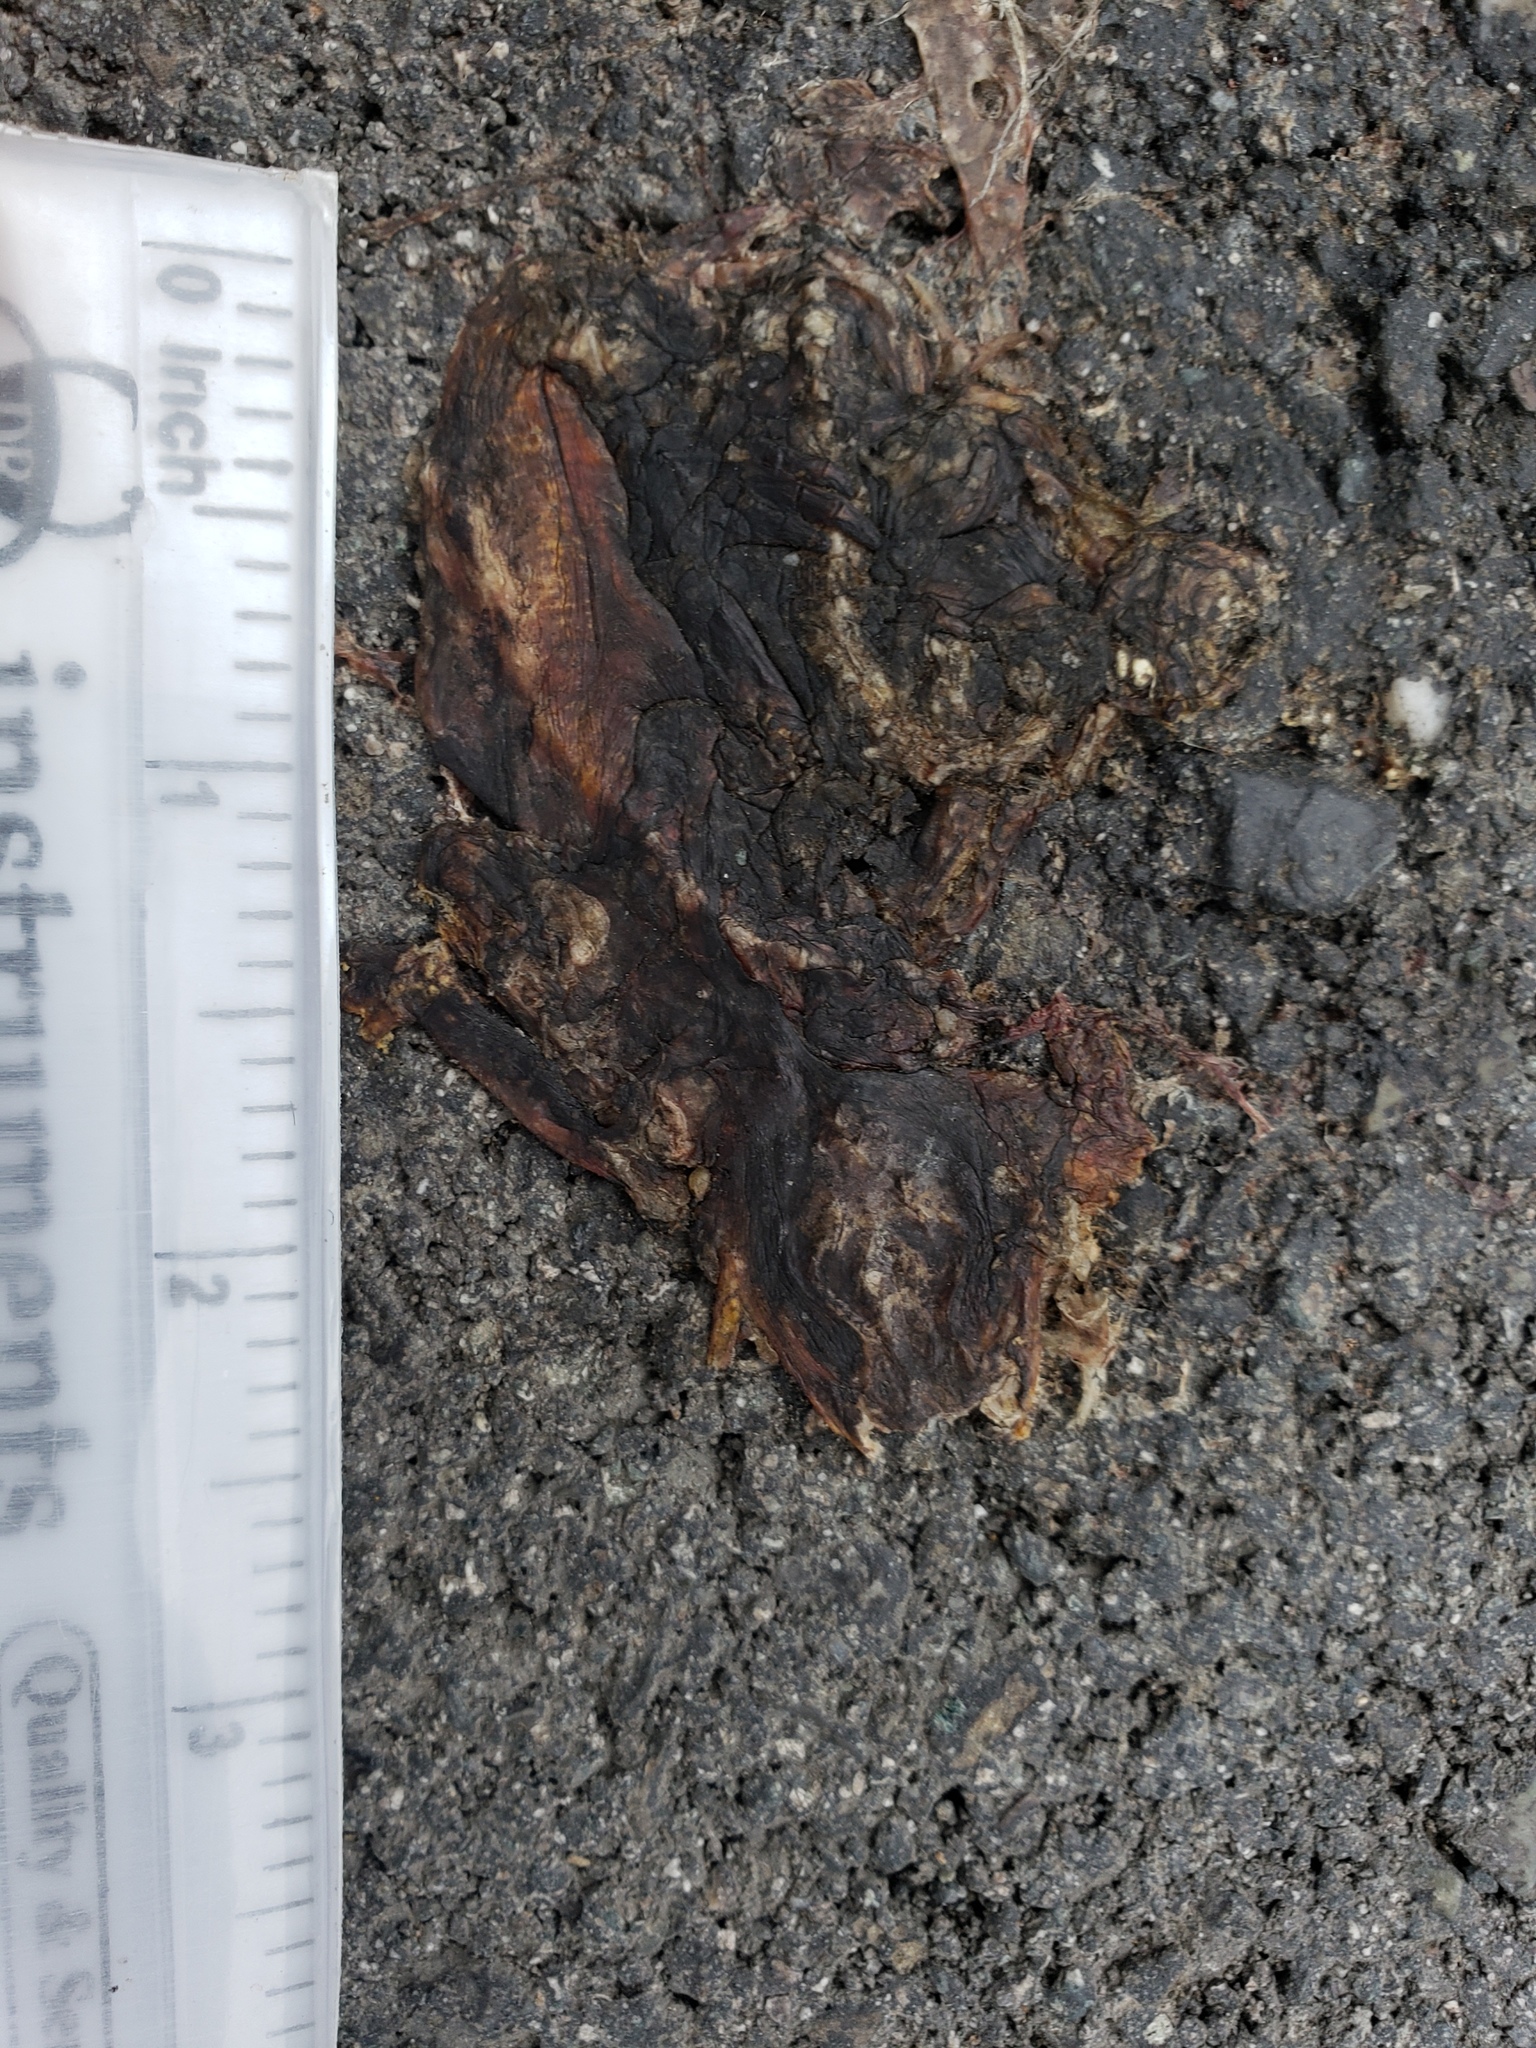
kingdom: Animalia
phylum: Chordata
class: Amphibia
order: Caudata
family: Salamandridae
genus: Taricha
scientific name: Taricha
